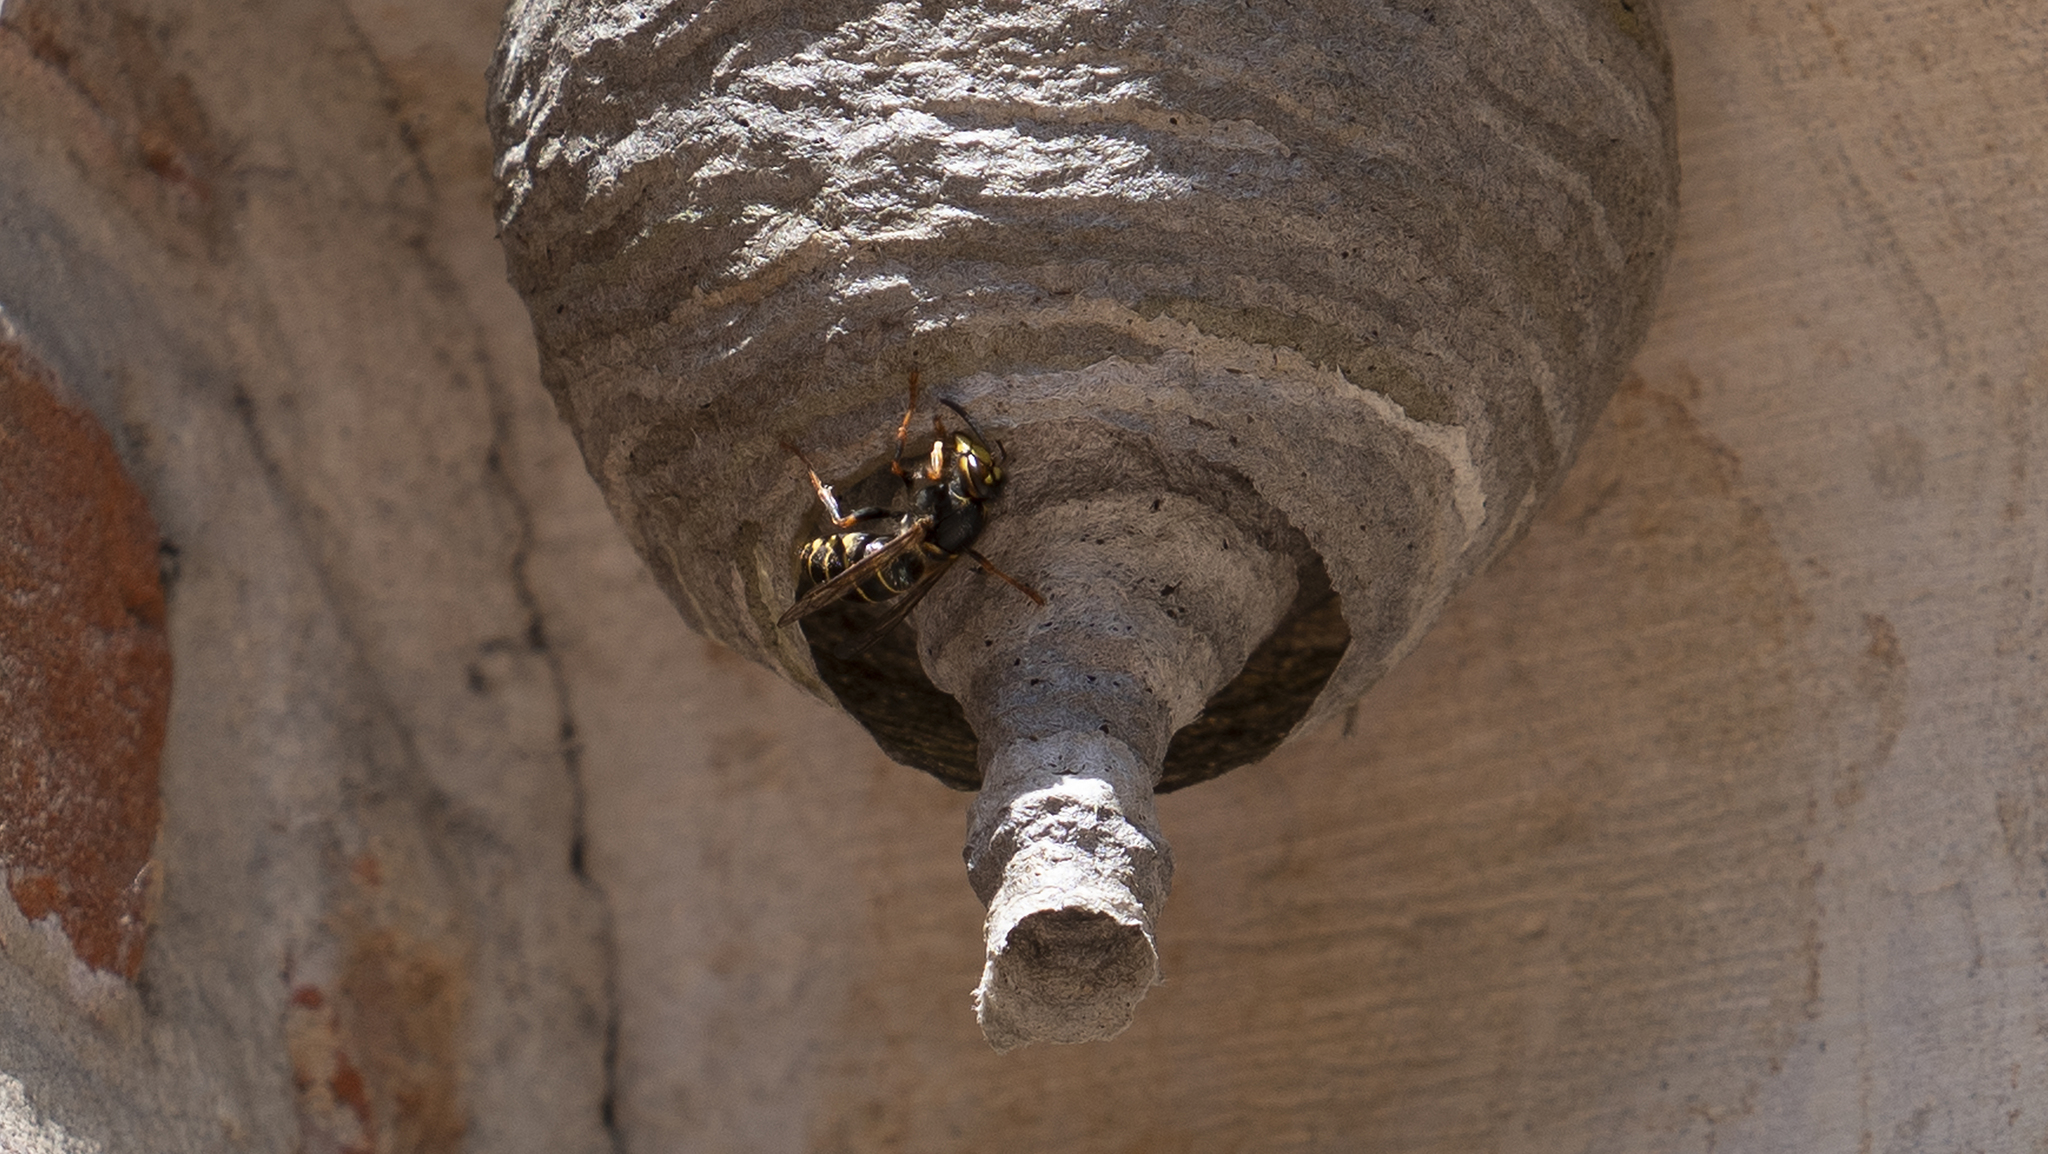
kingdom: Animalia
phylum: Arthropoda
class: Insecta
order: Hymenoptera
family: Vespidae
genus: Dolichovespula
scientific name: Dolichovespula media
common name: Median wasp
